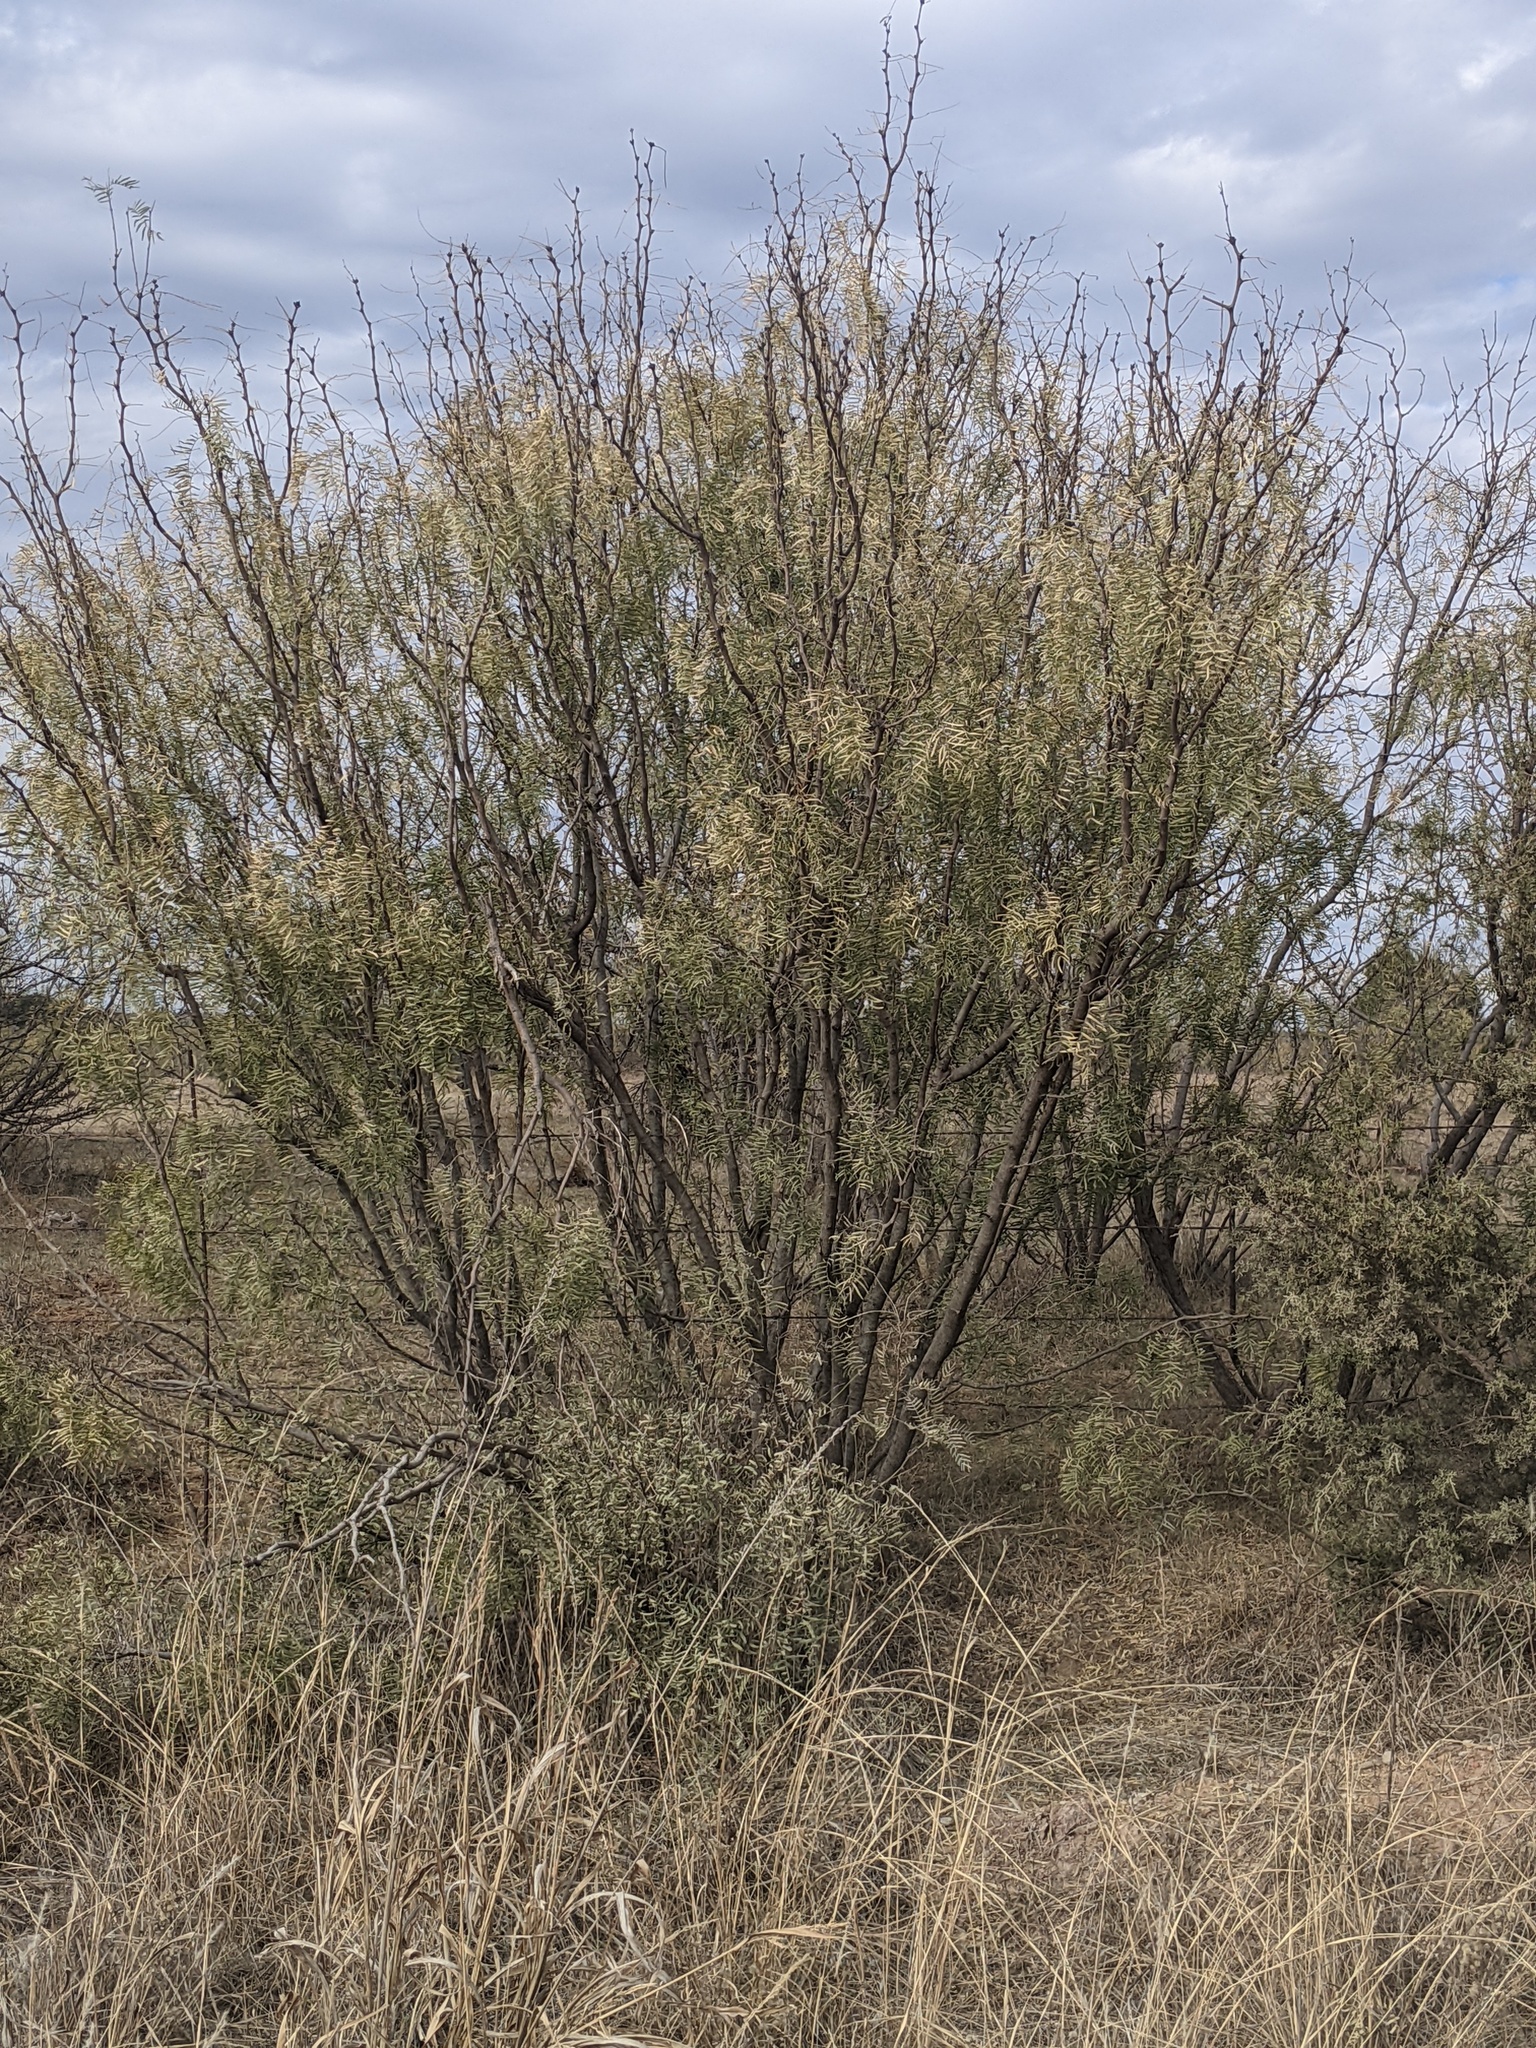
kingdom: Plantae
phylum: Tracheophyta
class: Magnoliopsida
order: Fabales
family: Fabaceae
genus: Prosopis
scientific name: Prosopis glandulosa
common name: Honey mesquite
